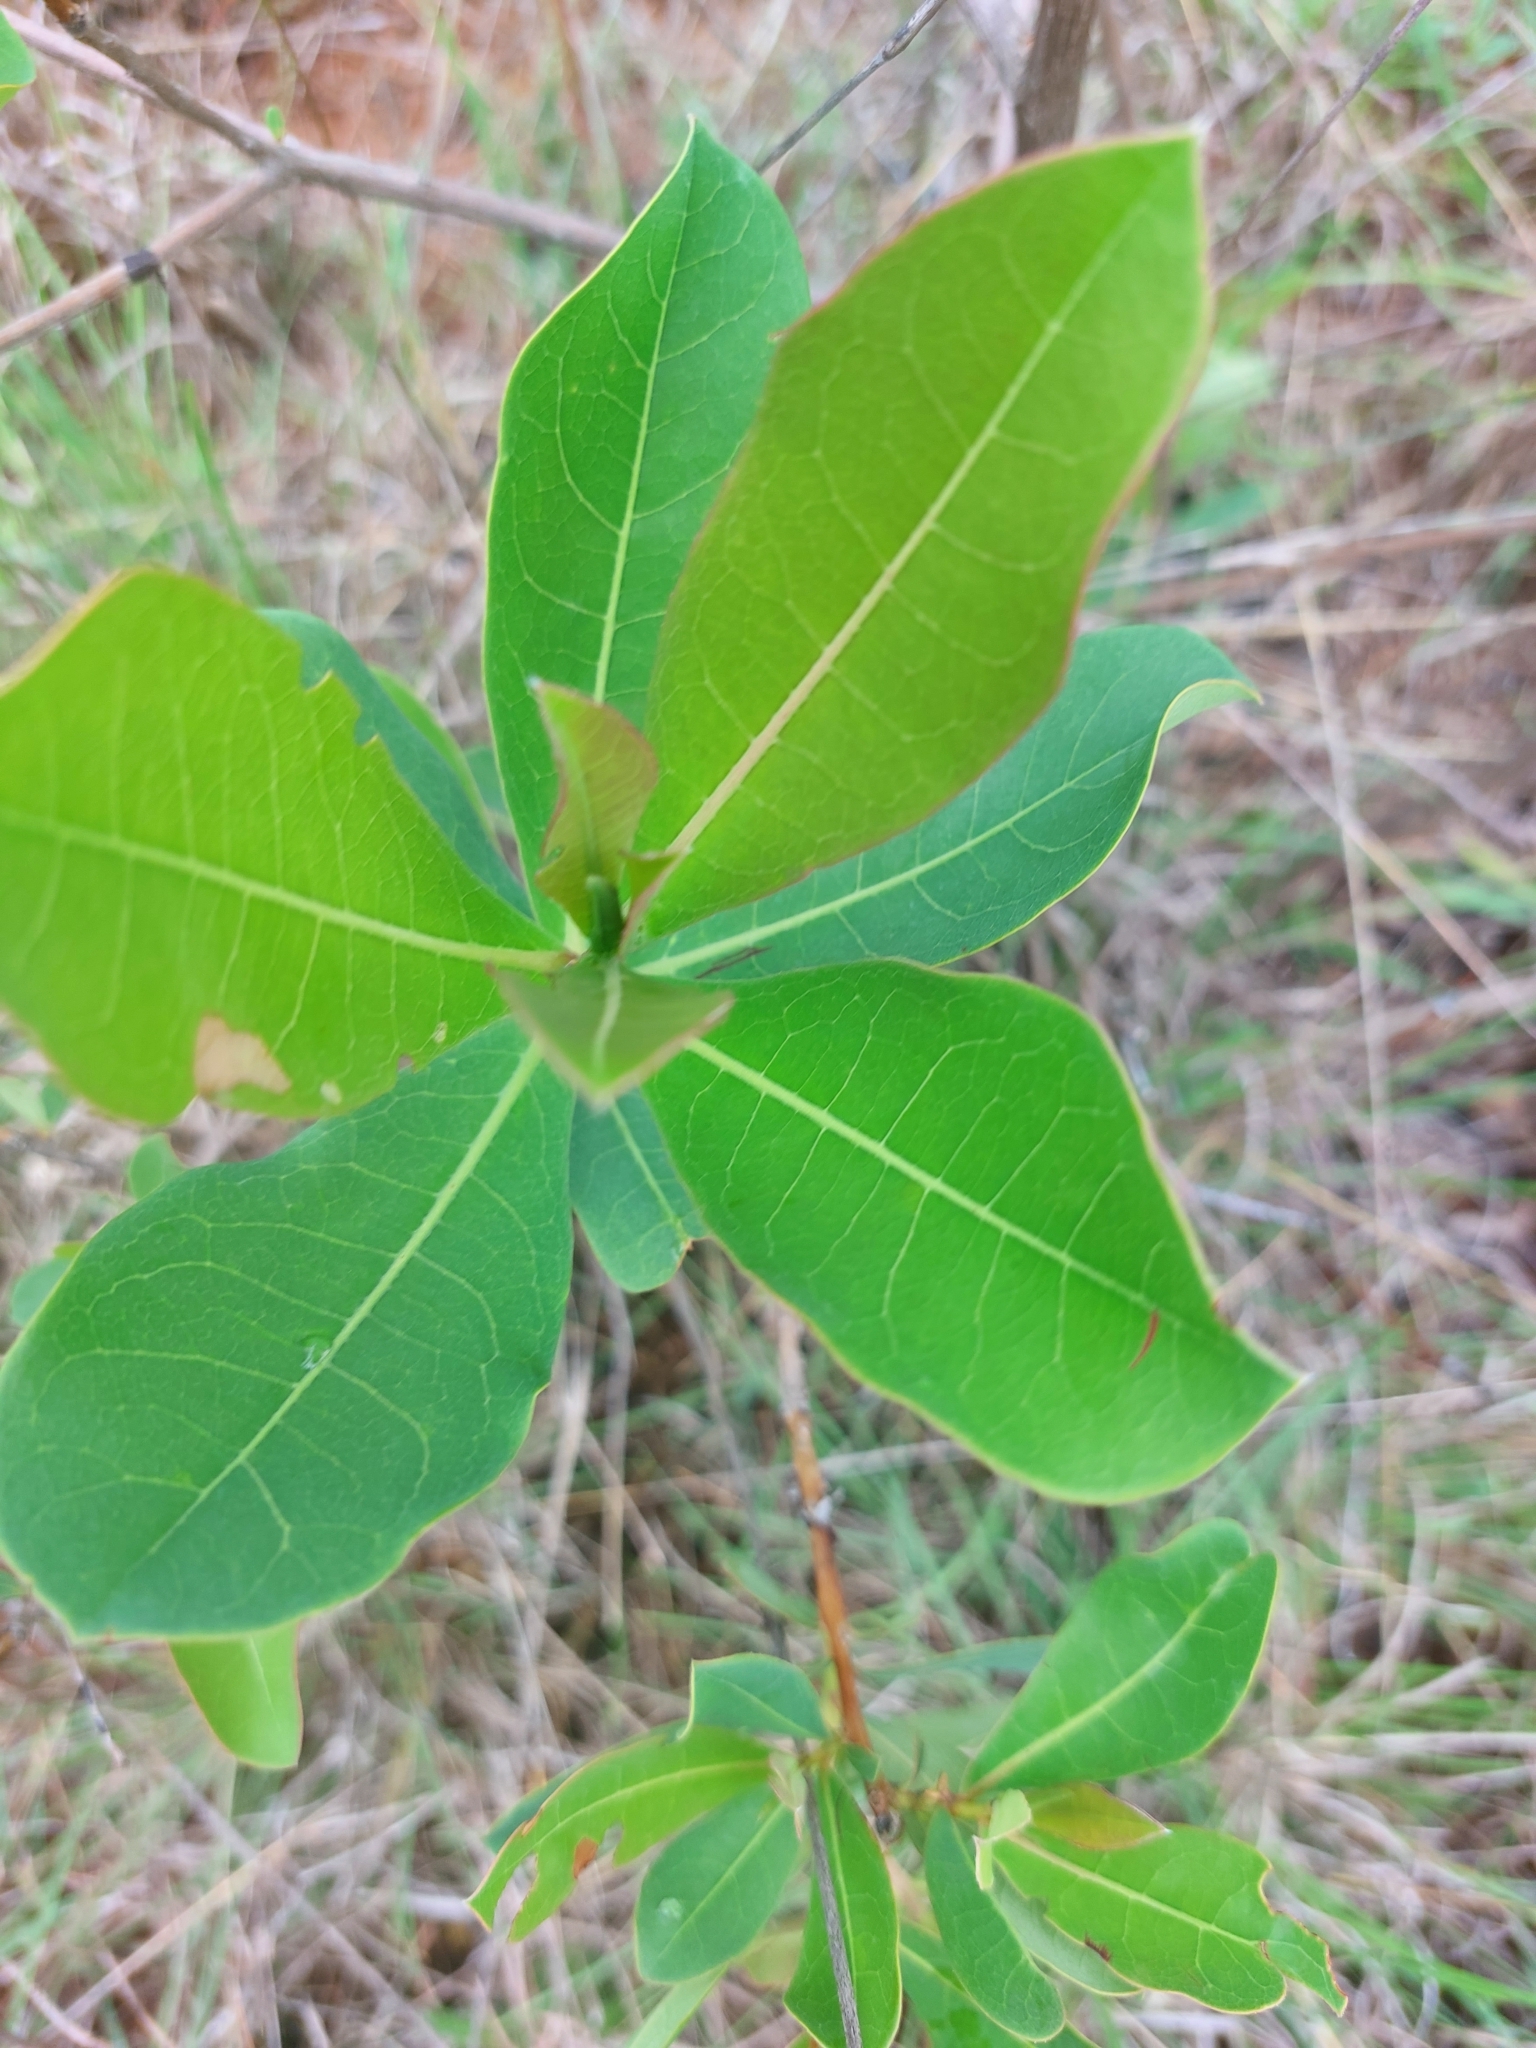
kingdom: Plantae
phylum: Tracheophyta
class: Magnoliopsida
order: Myrtales
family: Combretaceae
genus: Terminalia
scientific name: Terminalia brachystemma
